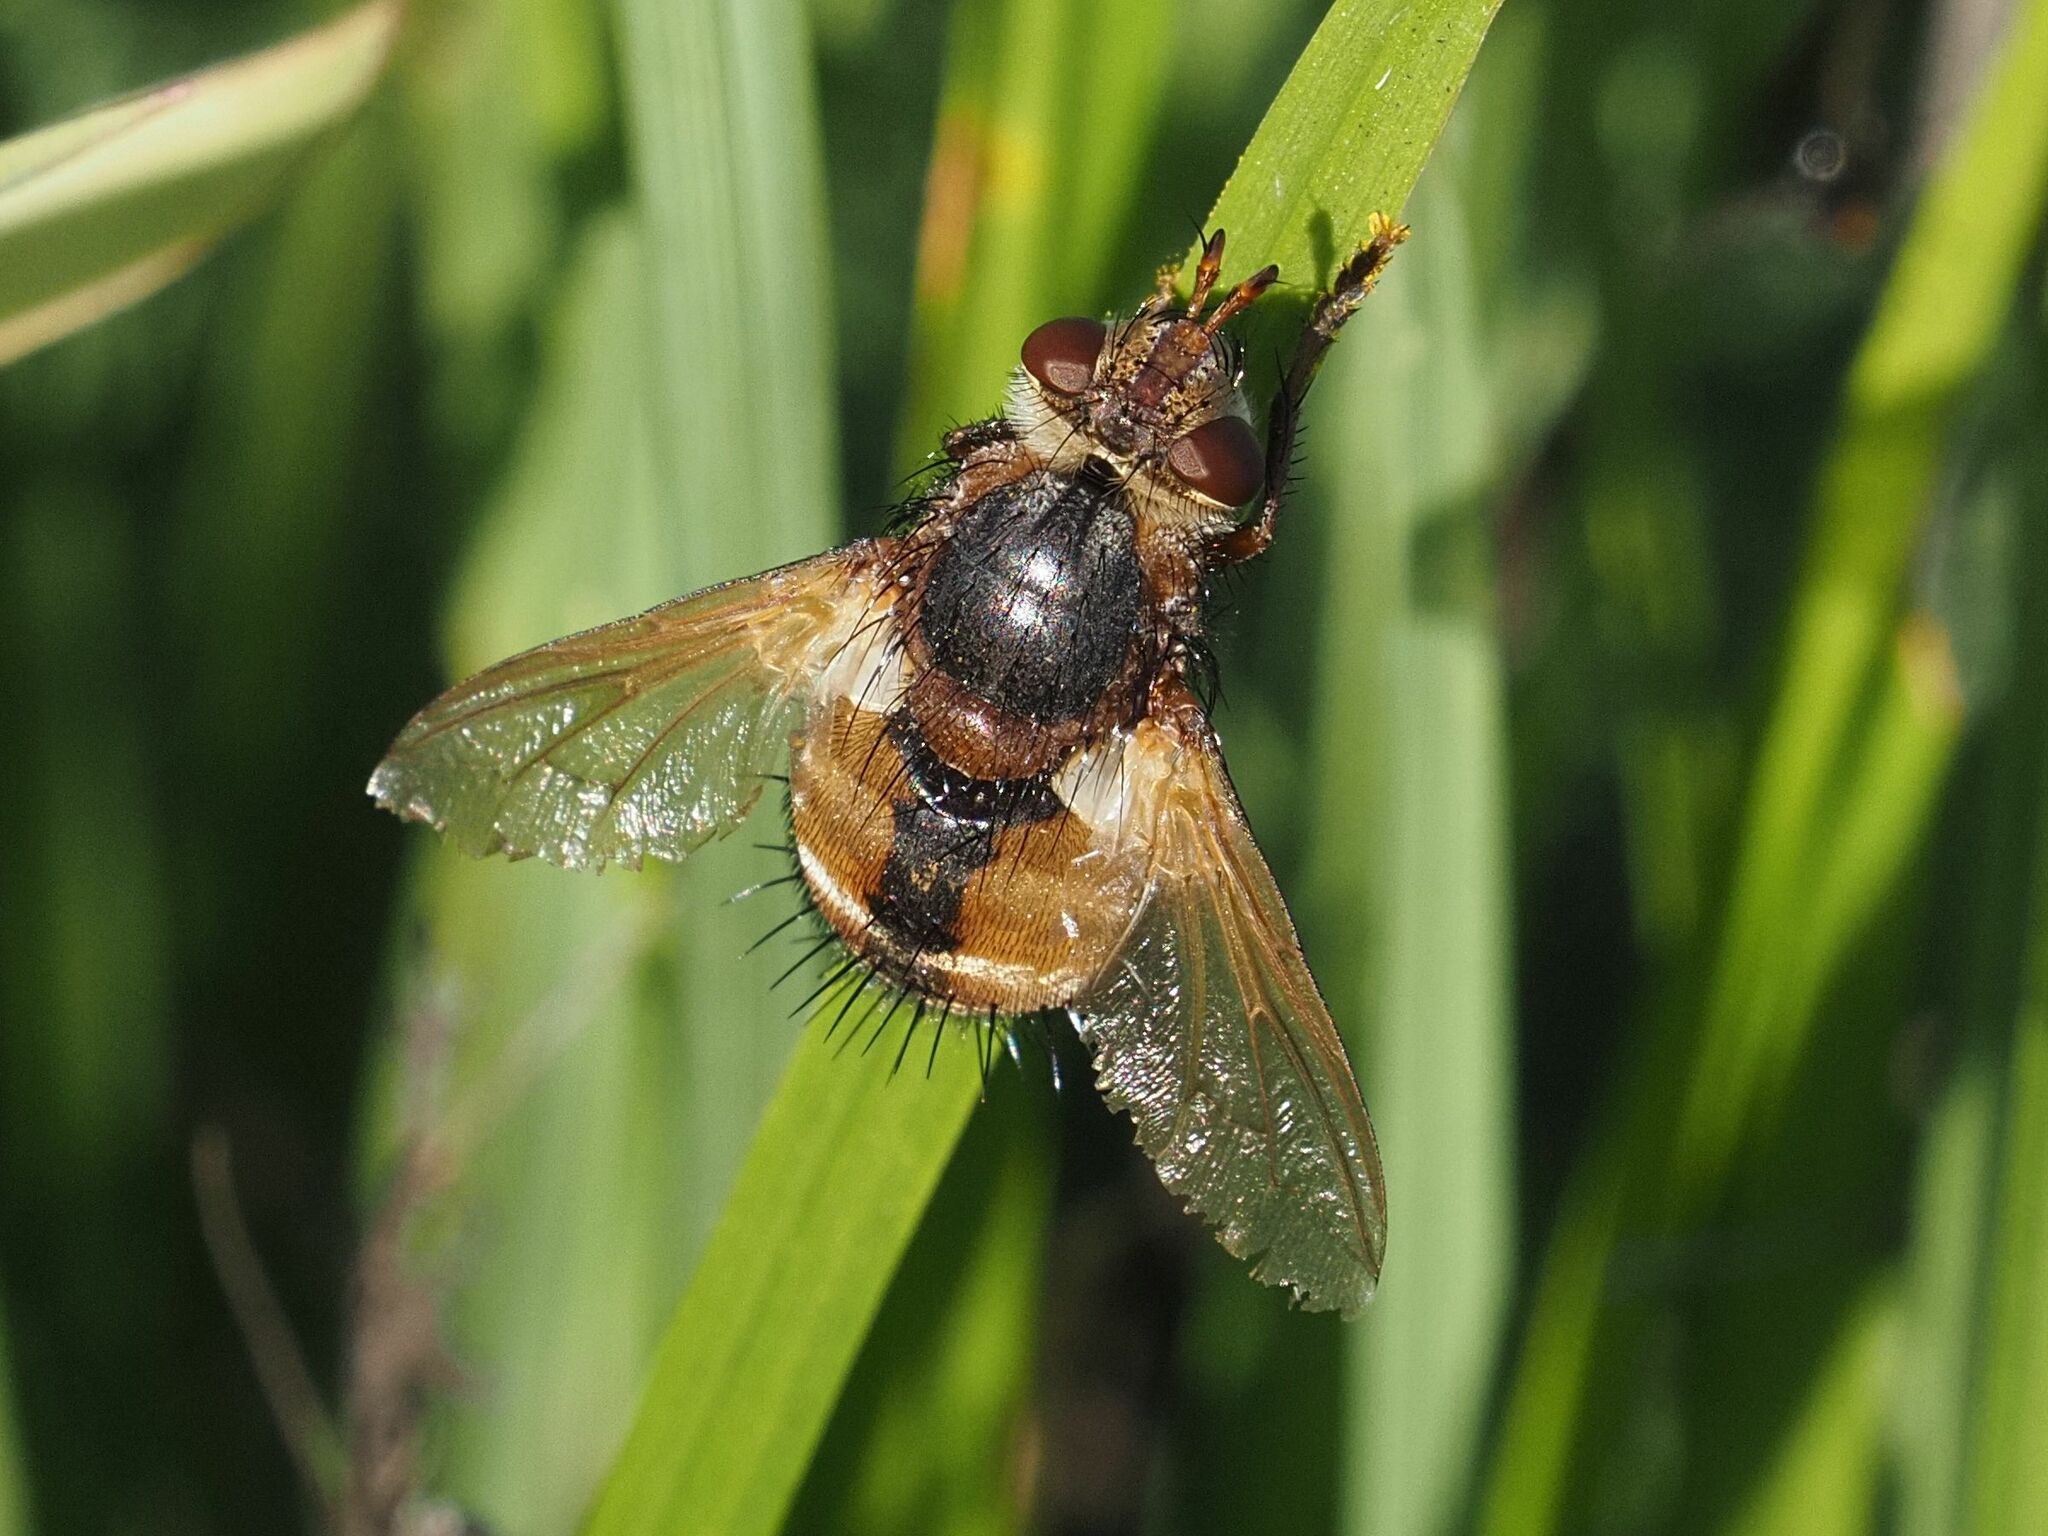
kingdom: Animalia
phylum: Arthropoda
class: Insecta
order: Diptera
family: Tachinidae
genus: Tachina
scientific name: Tachina fera
